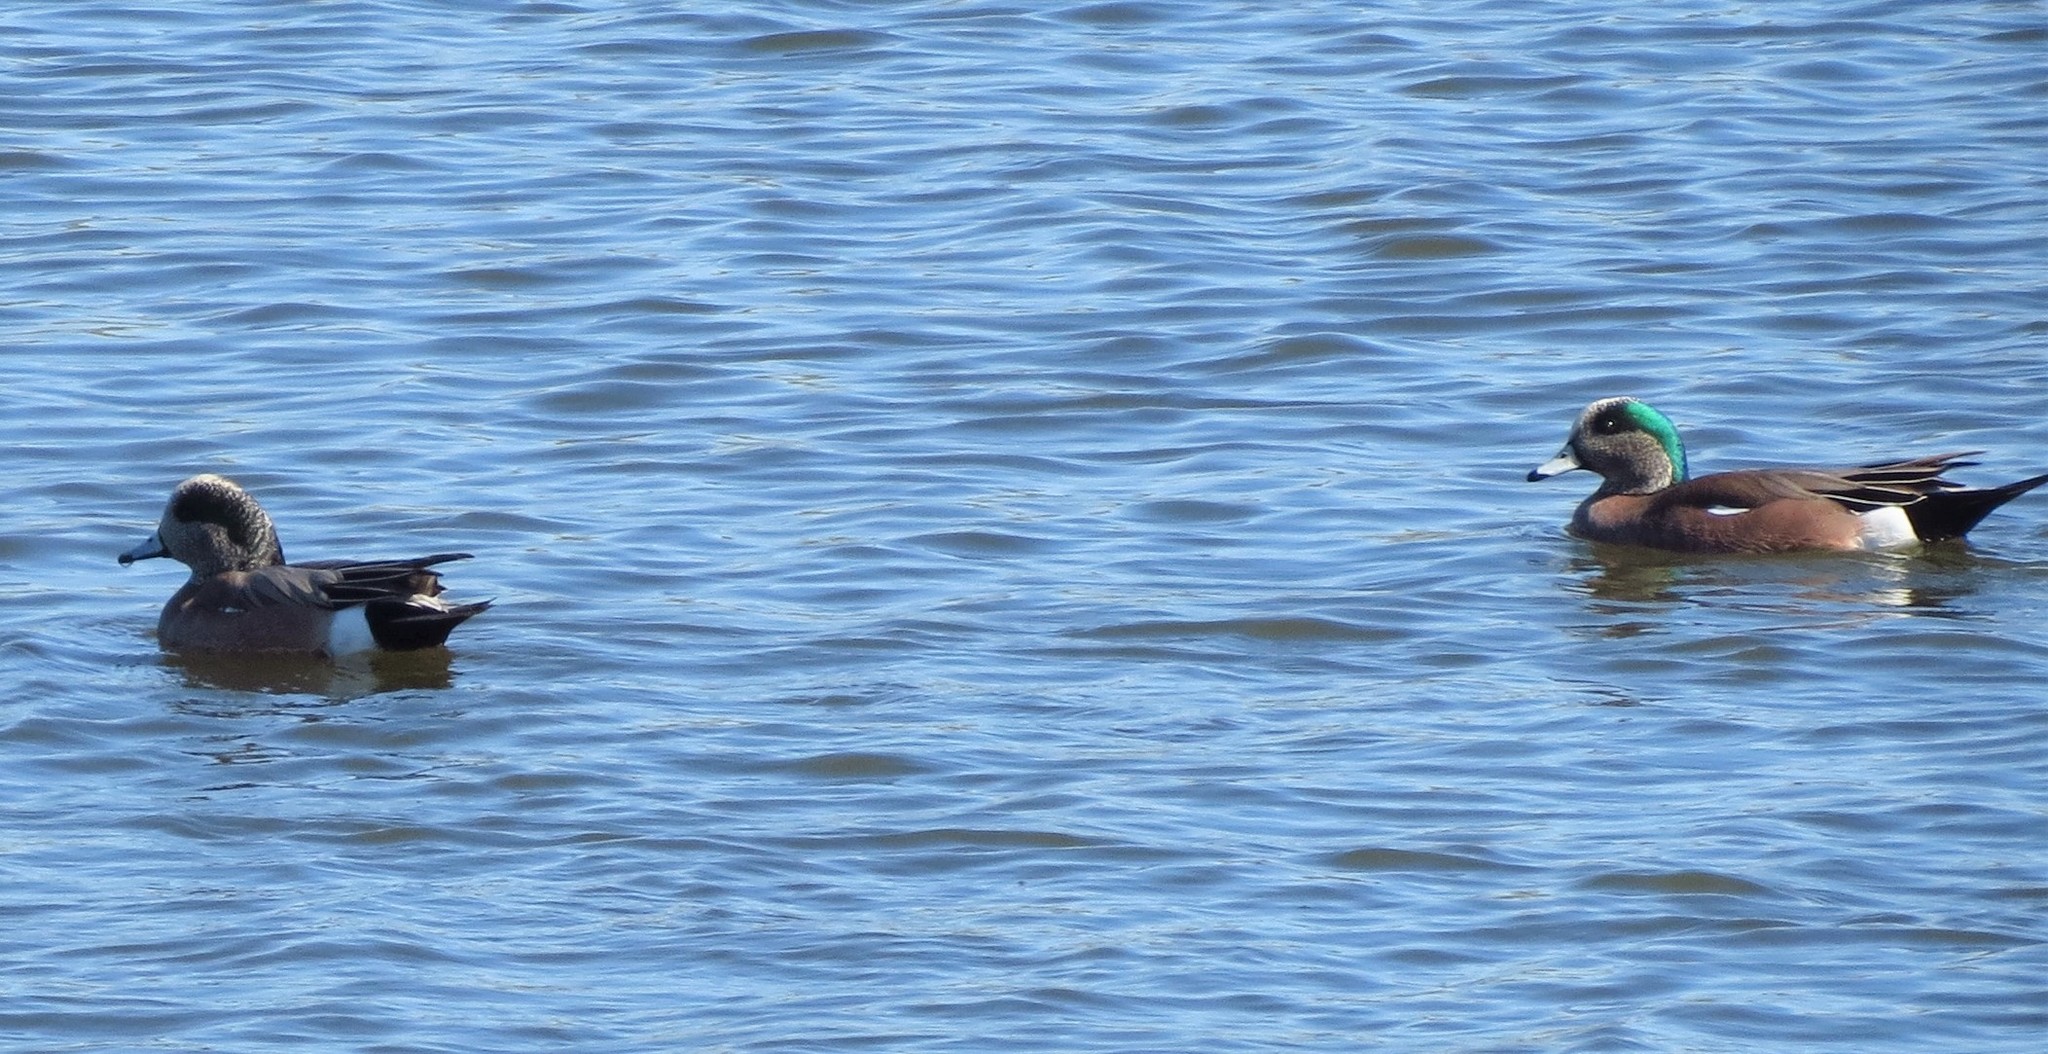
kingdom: Animalia
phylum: Chordata
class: Aves
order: Anseriformes
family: Anatidae
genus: Mareca
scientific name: Mareca americana
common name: American wigeon
